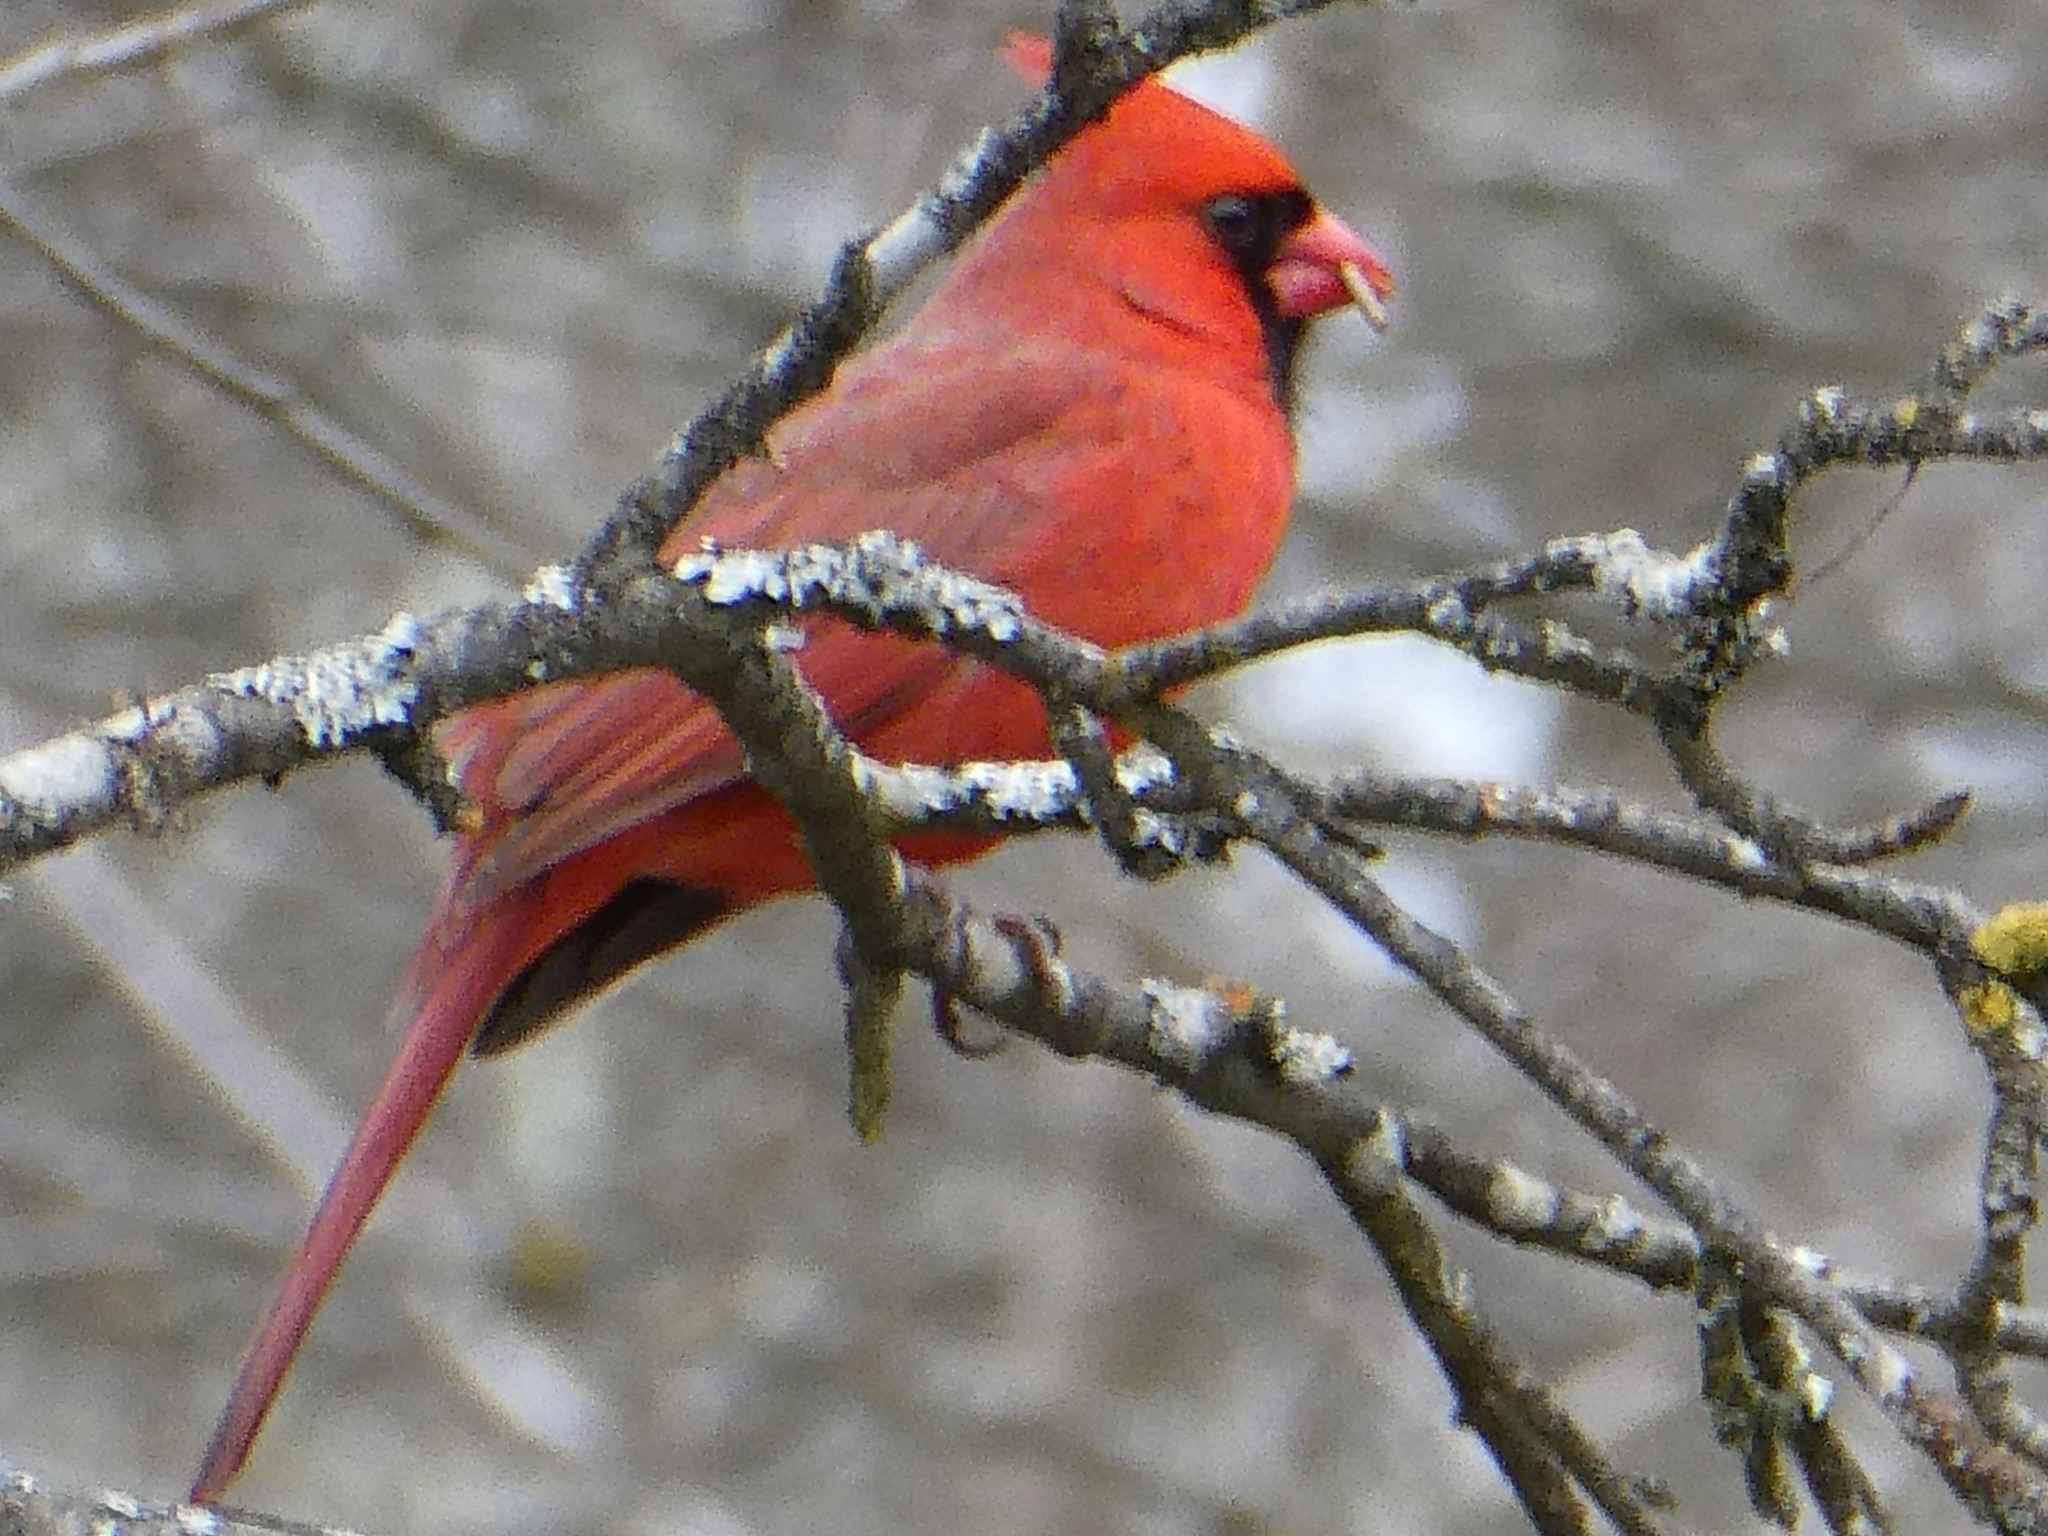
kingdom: Animalia
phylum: Chordata
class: Aves
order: Passeriformes
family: Cardinalidae
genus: Cardinalis
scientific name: Cardinalis cardinalis
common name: Northern cardinal
